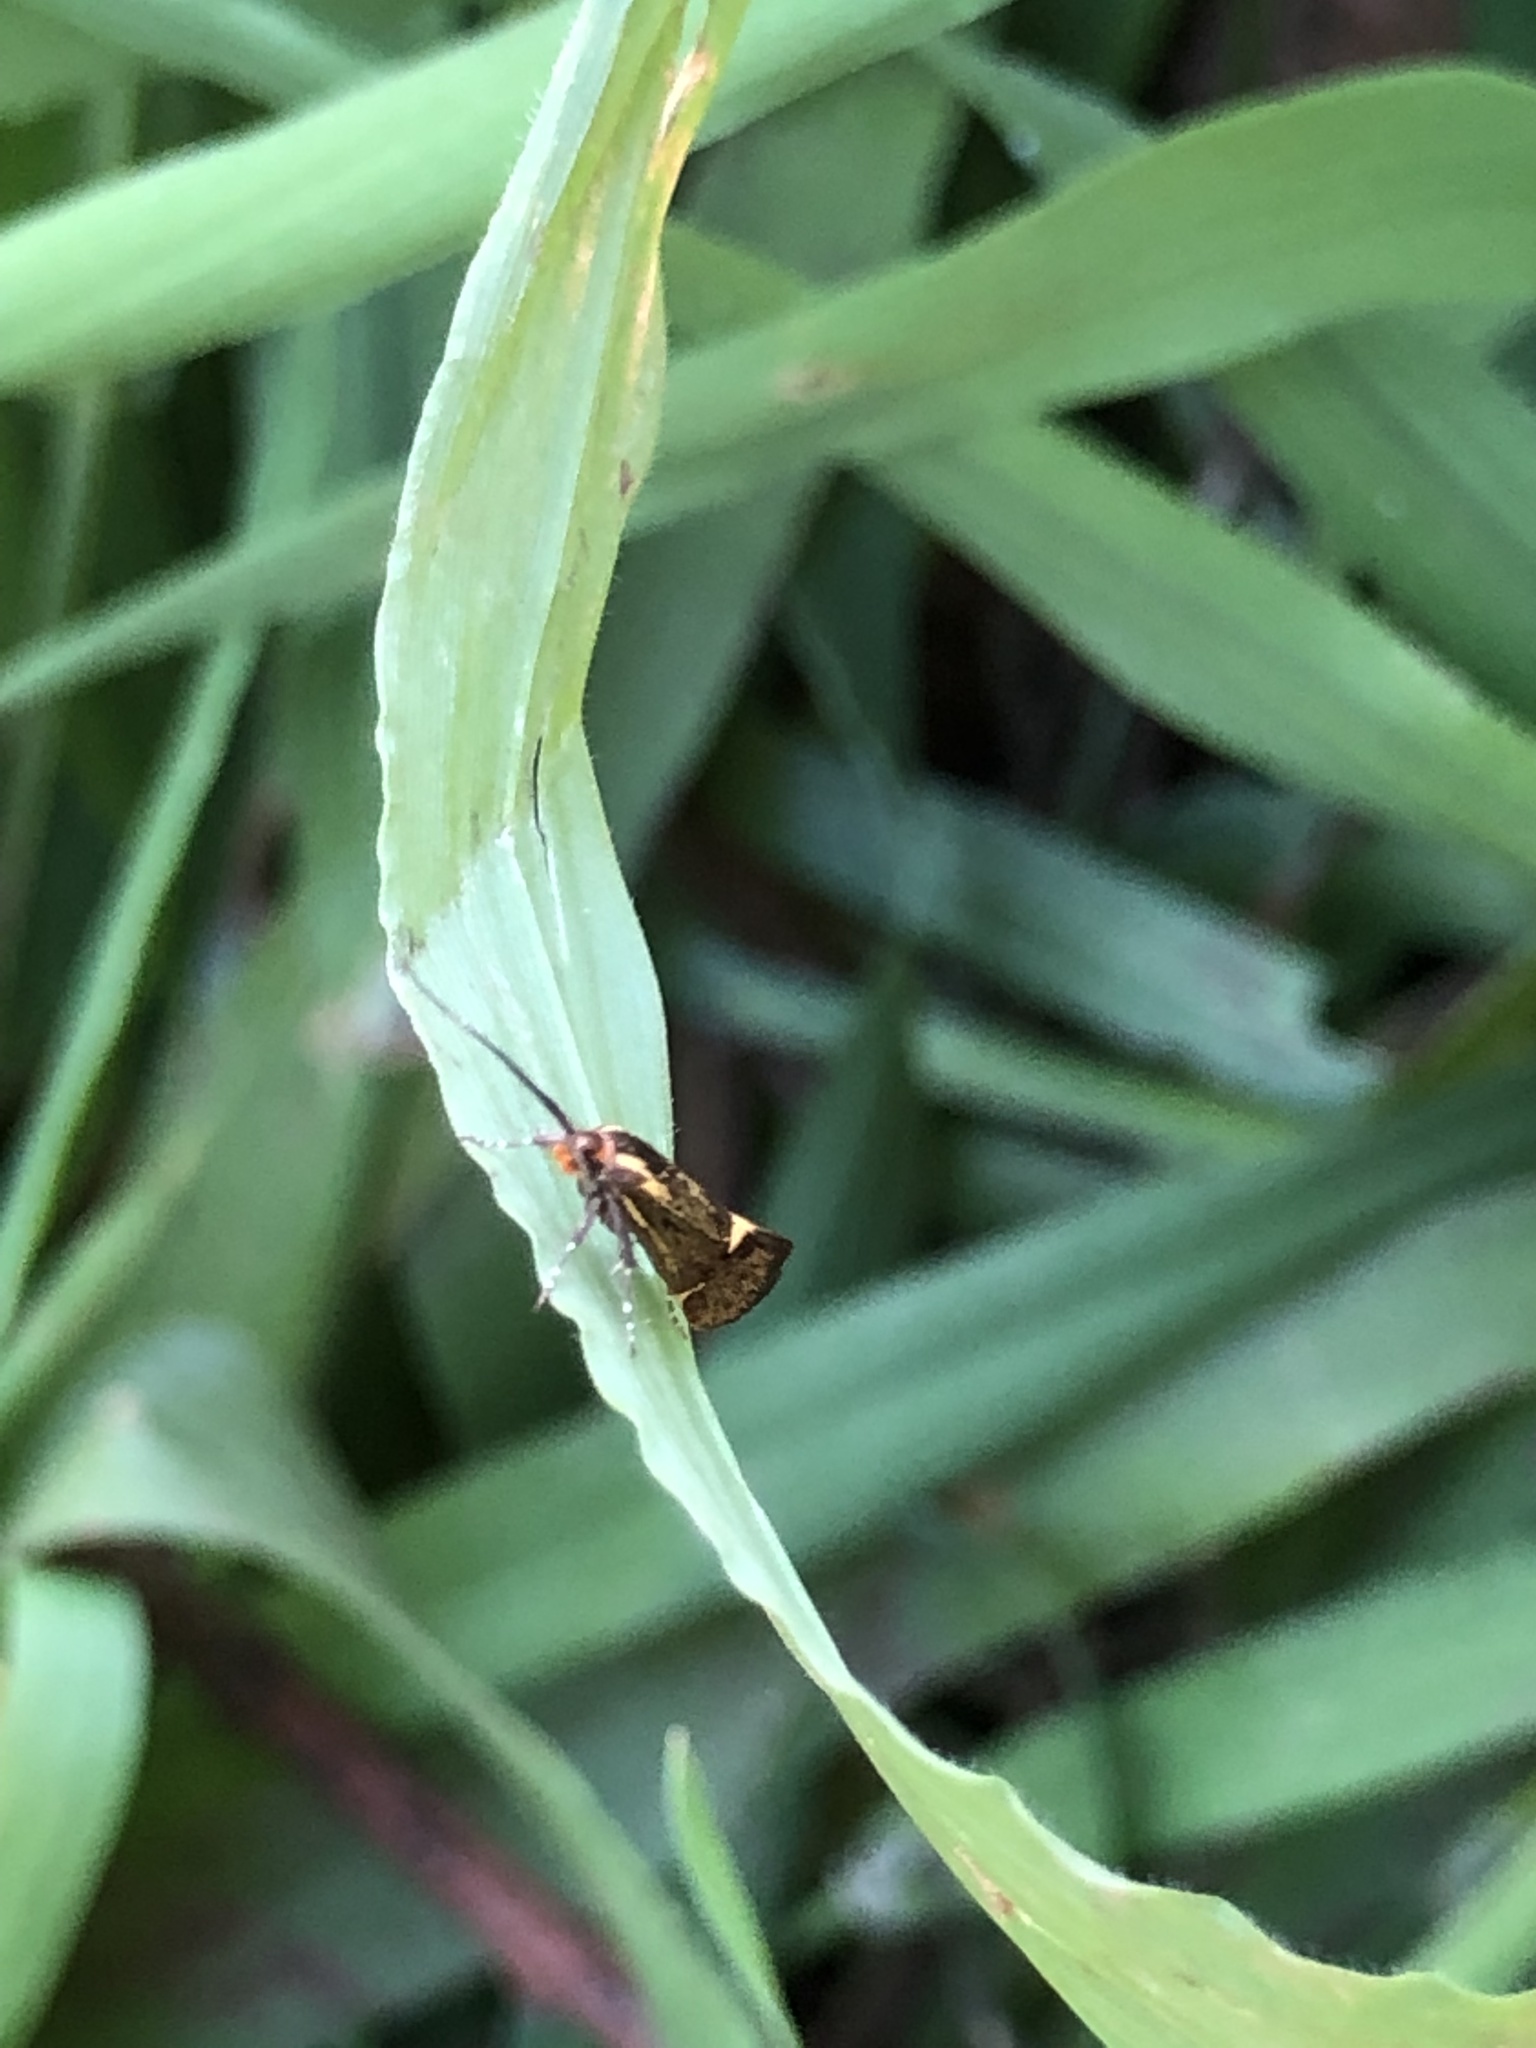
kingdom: Animalia
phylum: Arthropoda
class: Insecta
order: Lepidoptera
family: Oecophoridae
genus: Dafa
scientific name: Dafa Esperia sulphurella
